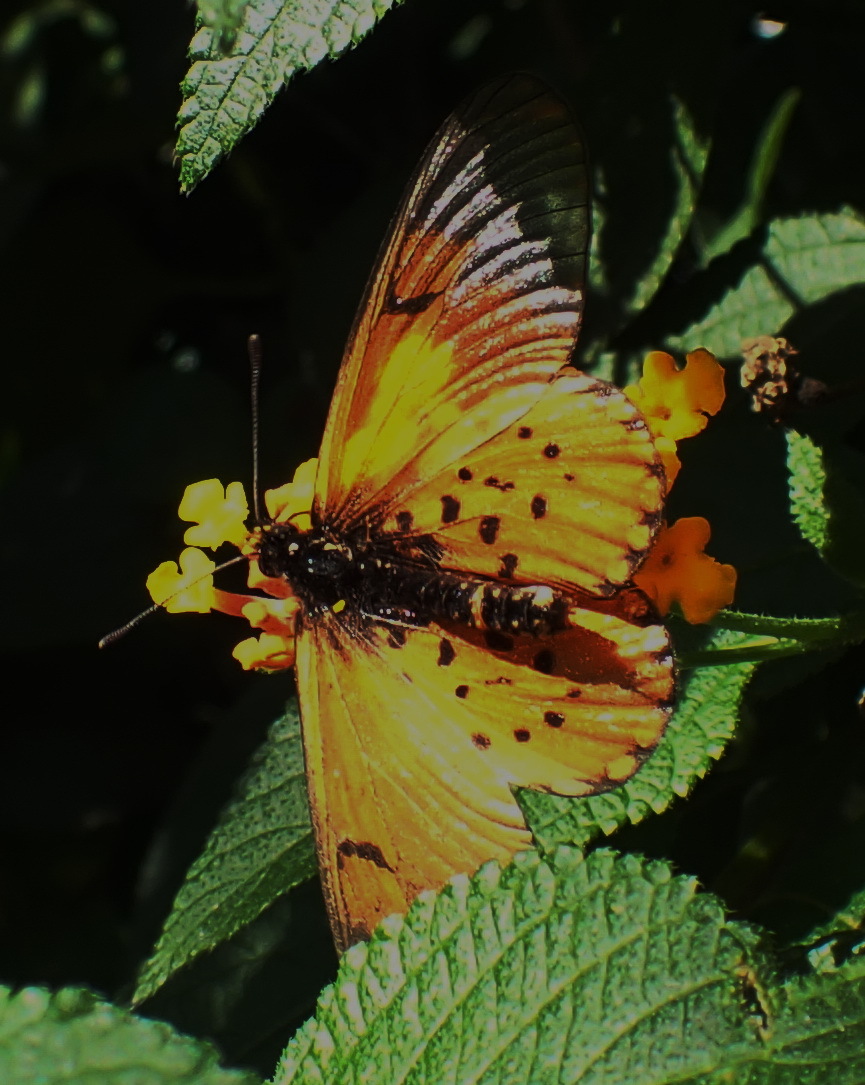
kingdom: Animalia
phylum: Arthropoda
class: Insecta
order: Lepidoptera
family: Nymphalidae
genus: Acraea
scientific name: Acraea horta
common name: Garden acraea
